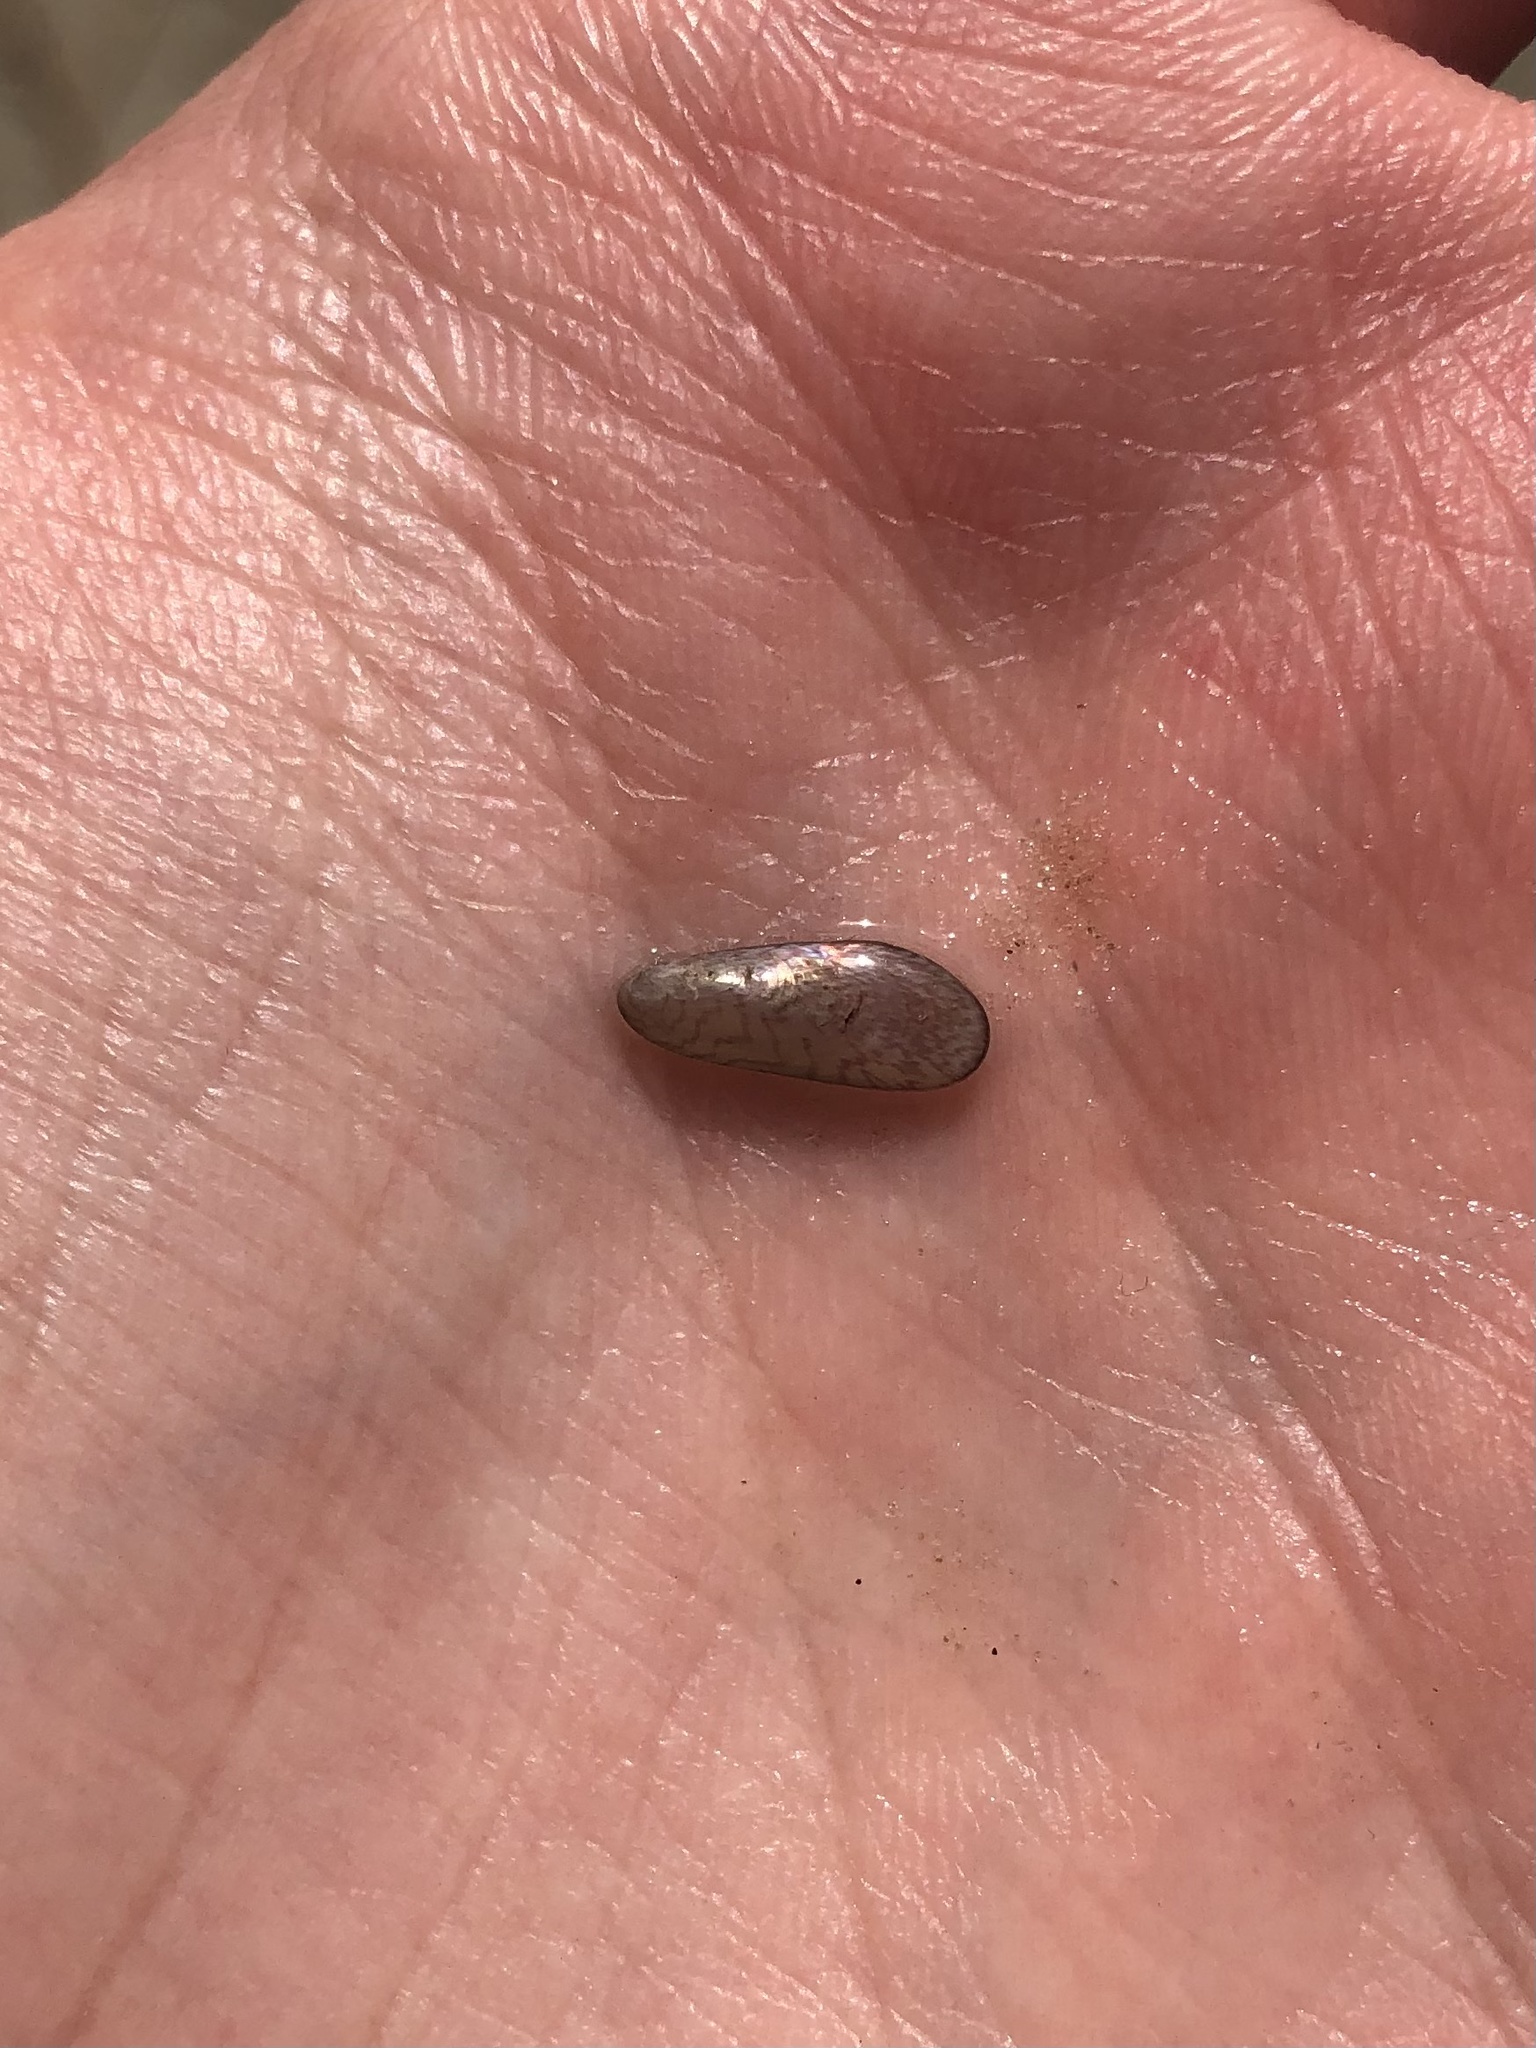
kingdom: Animalia
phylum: Mollusca
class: Bivalvia
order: Mytilida
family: Mytilidae
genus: Arcuatula
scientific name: Arcuatula papyria
